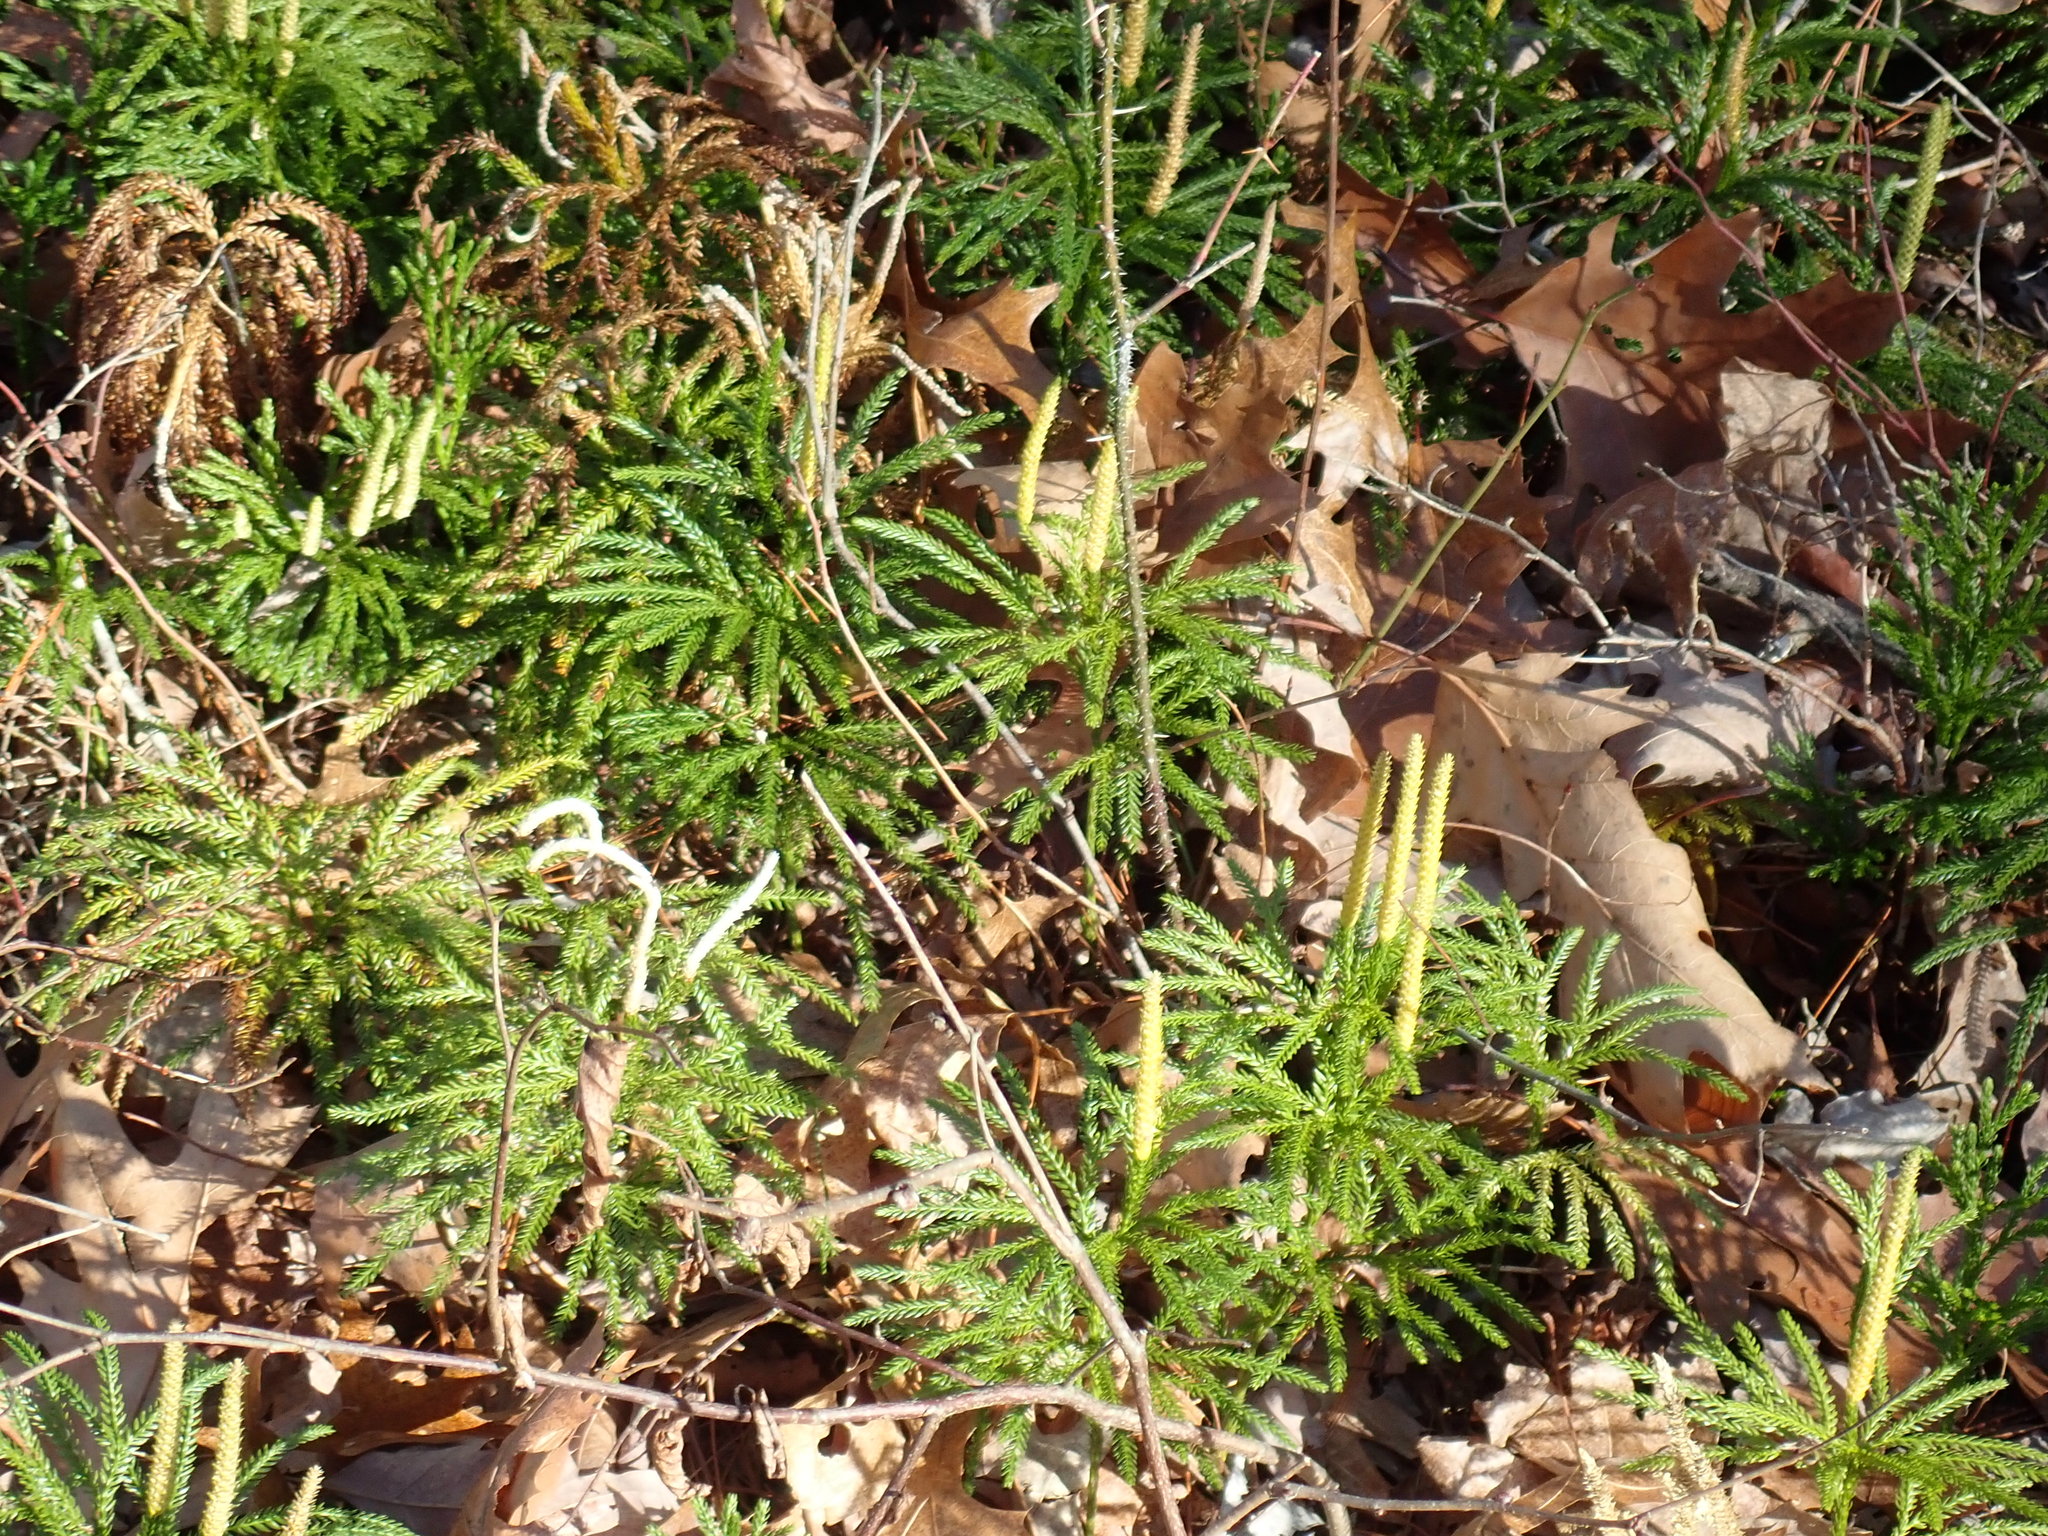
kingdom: Plantae
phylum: Tracheophyta
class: Lycopodiopsida
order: Lycopodiales
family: Lycopodiaceae
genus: Dendrolycopodium
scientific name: Dendrolycopodium obscurum
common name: Common ground-pine
